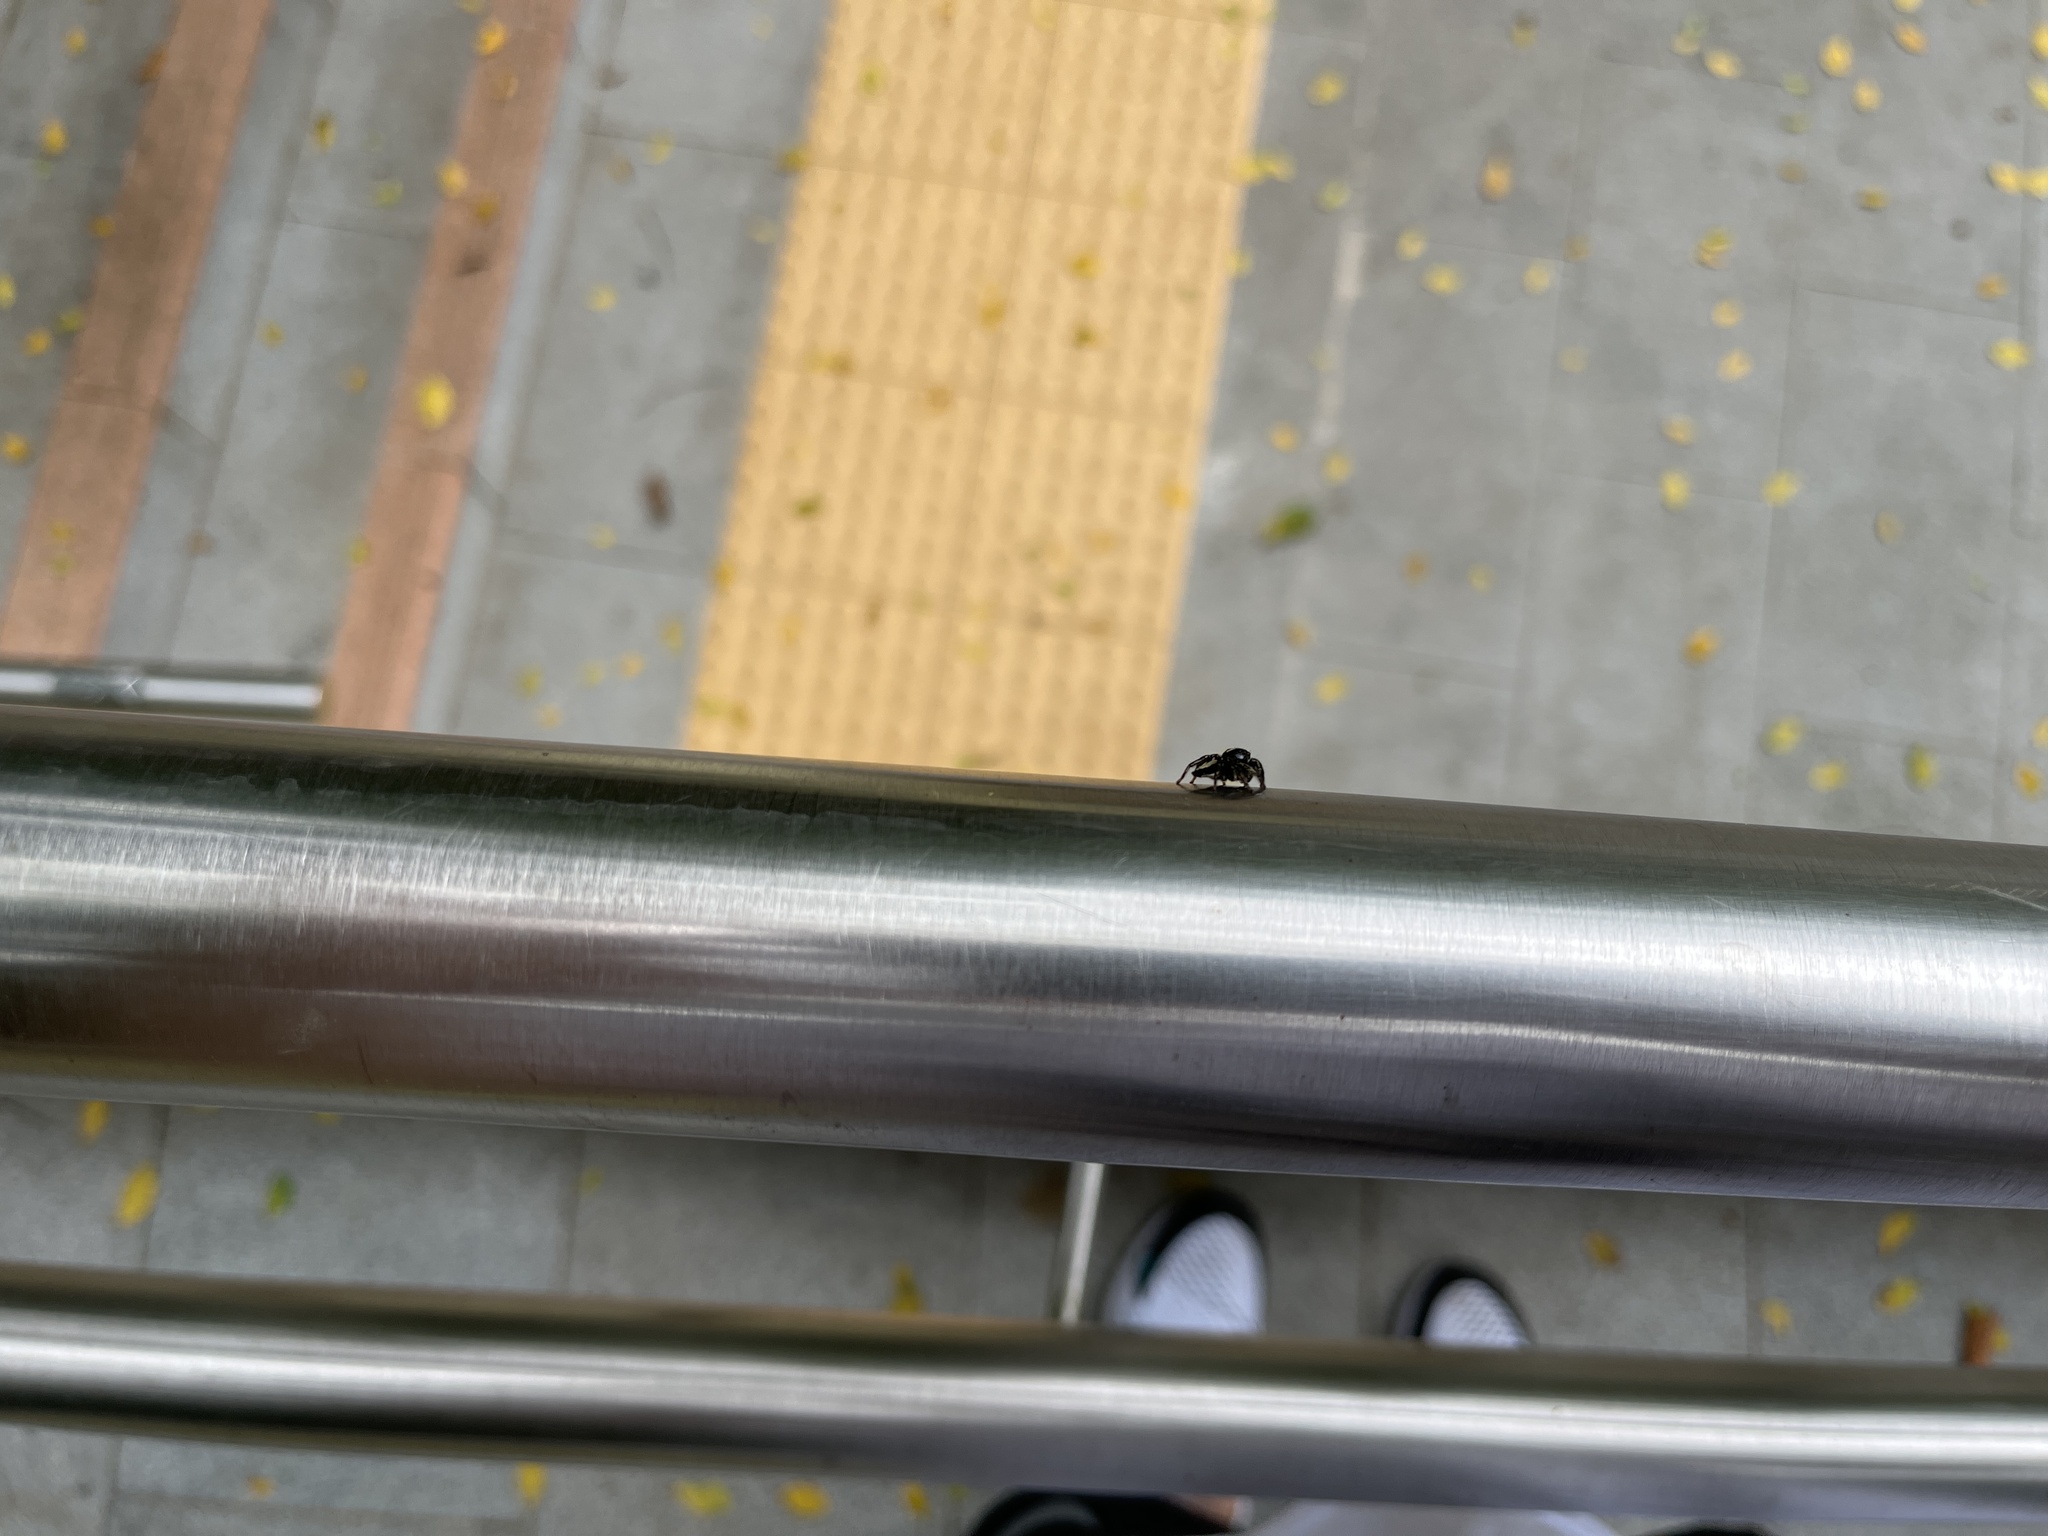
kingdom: Animalia
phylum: Arthropoda
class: Arachnida
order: Araneae
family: Salticidae
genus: Ptocasius
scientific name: Ptocasius strupifer
